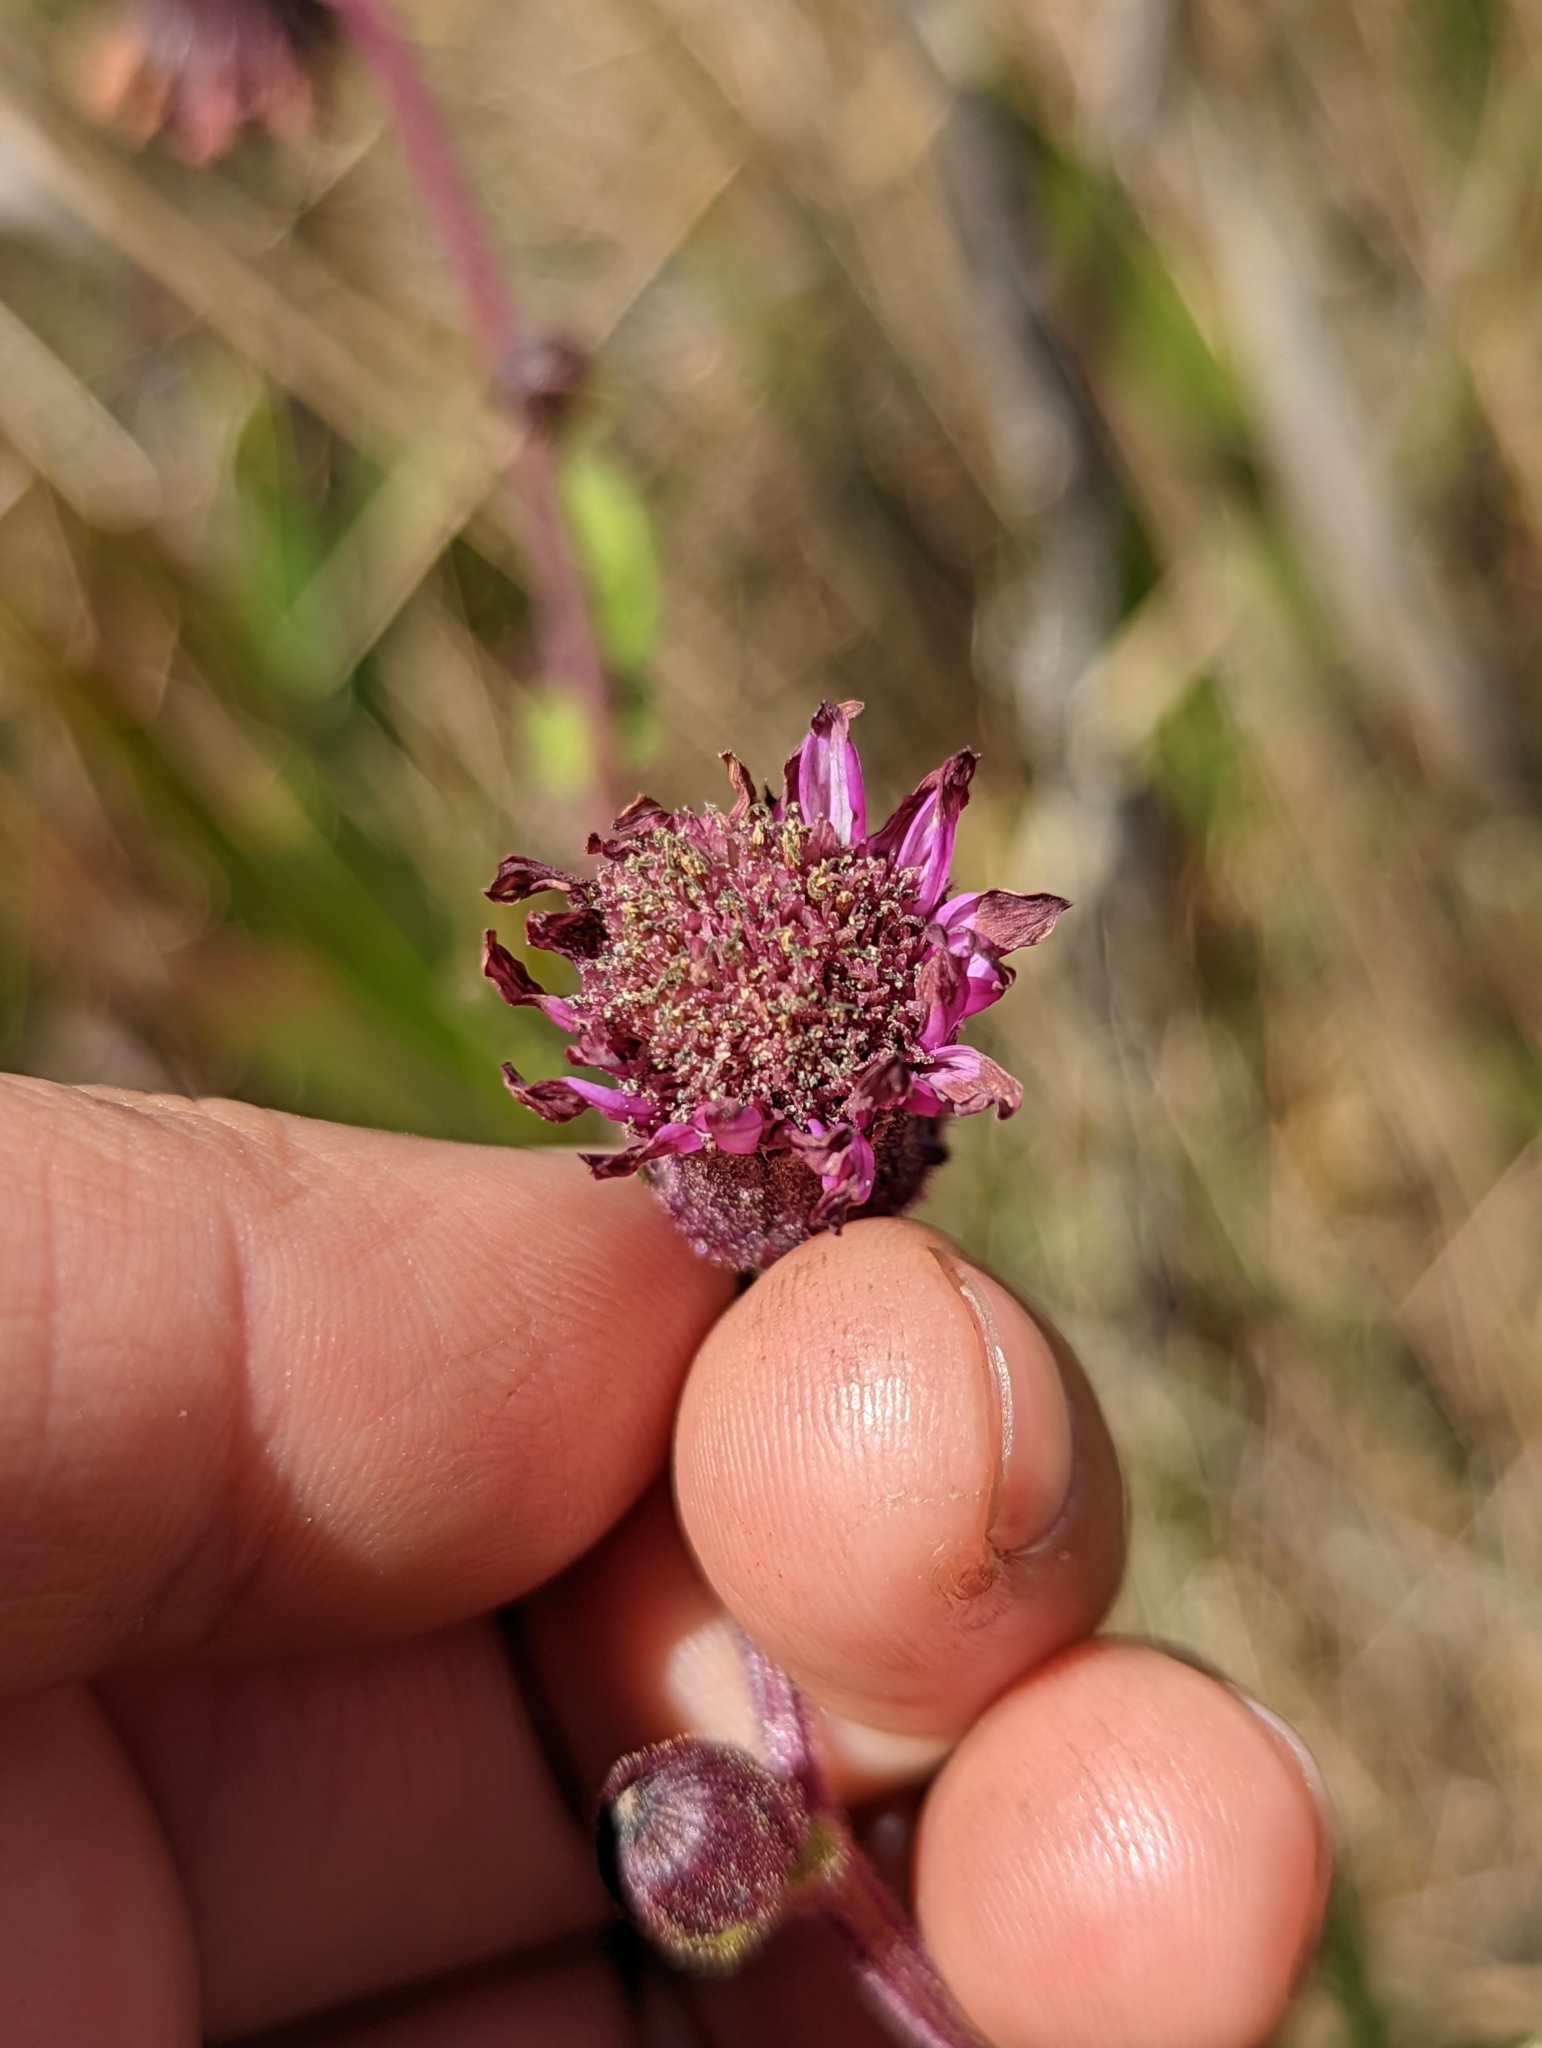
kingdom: Plantae
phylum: Tracheophyta
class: Magnoliopsida
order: Asterales
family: Asteraceae
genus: Senecio
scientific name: Senecio formosoides
